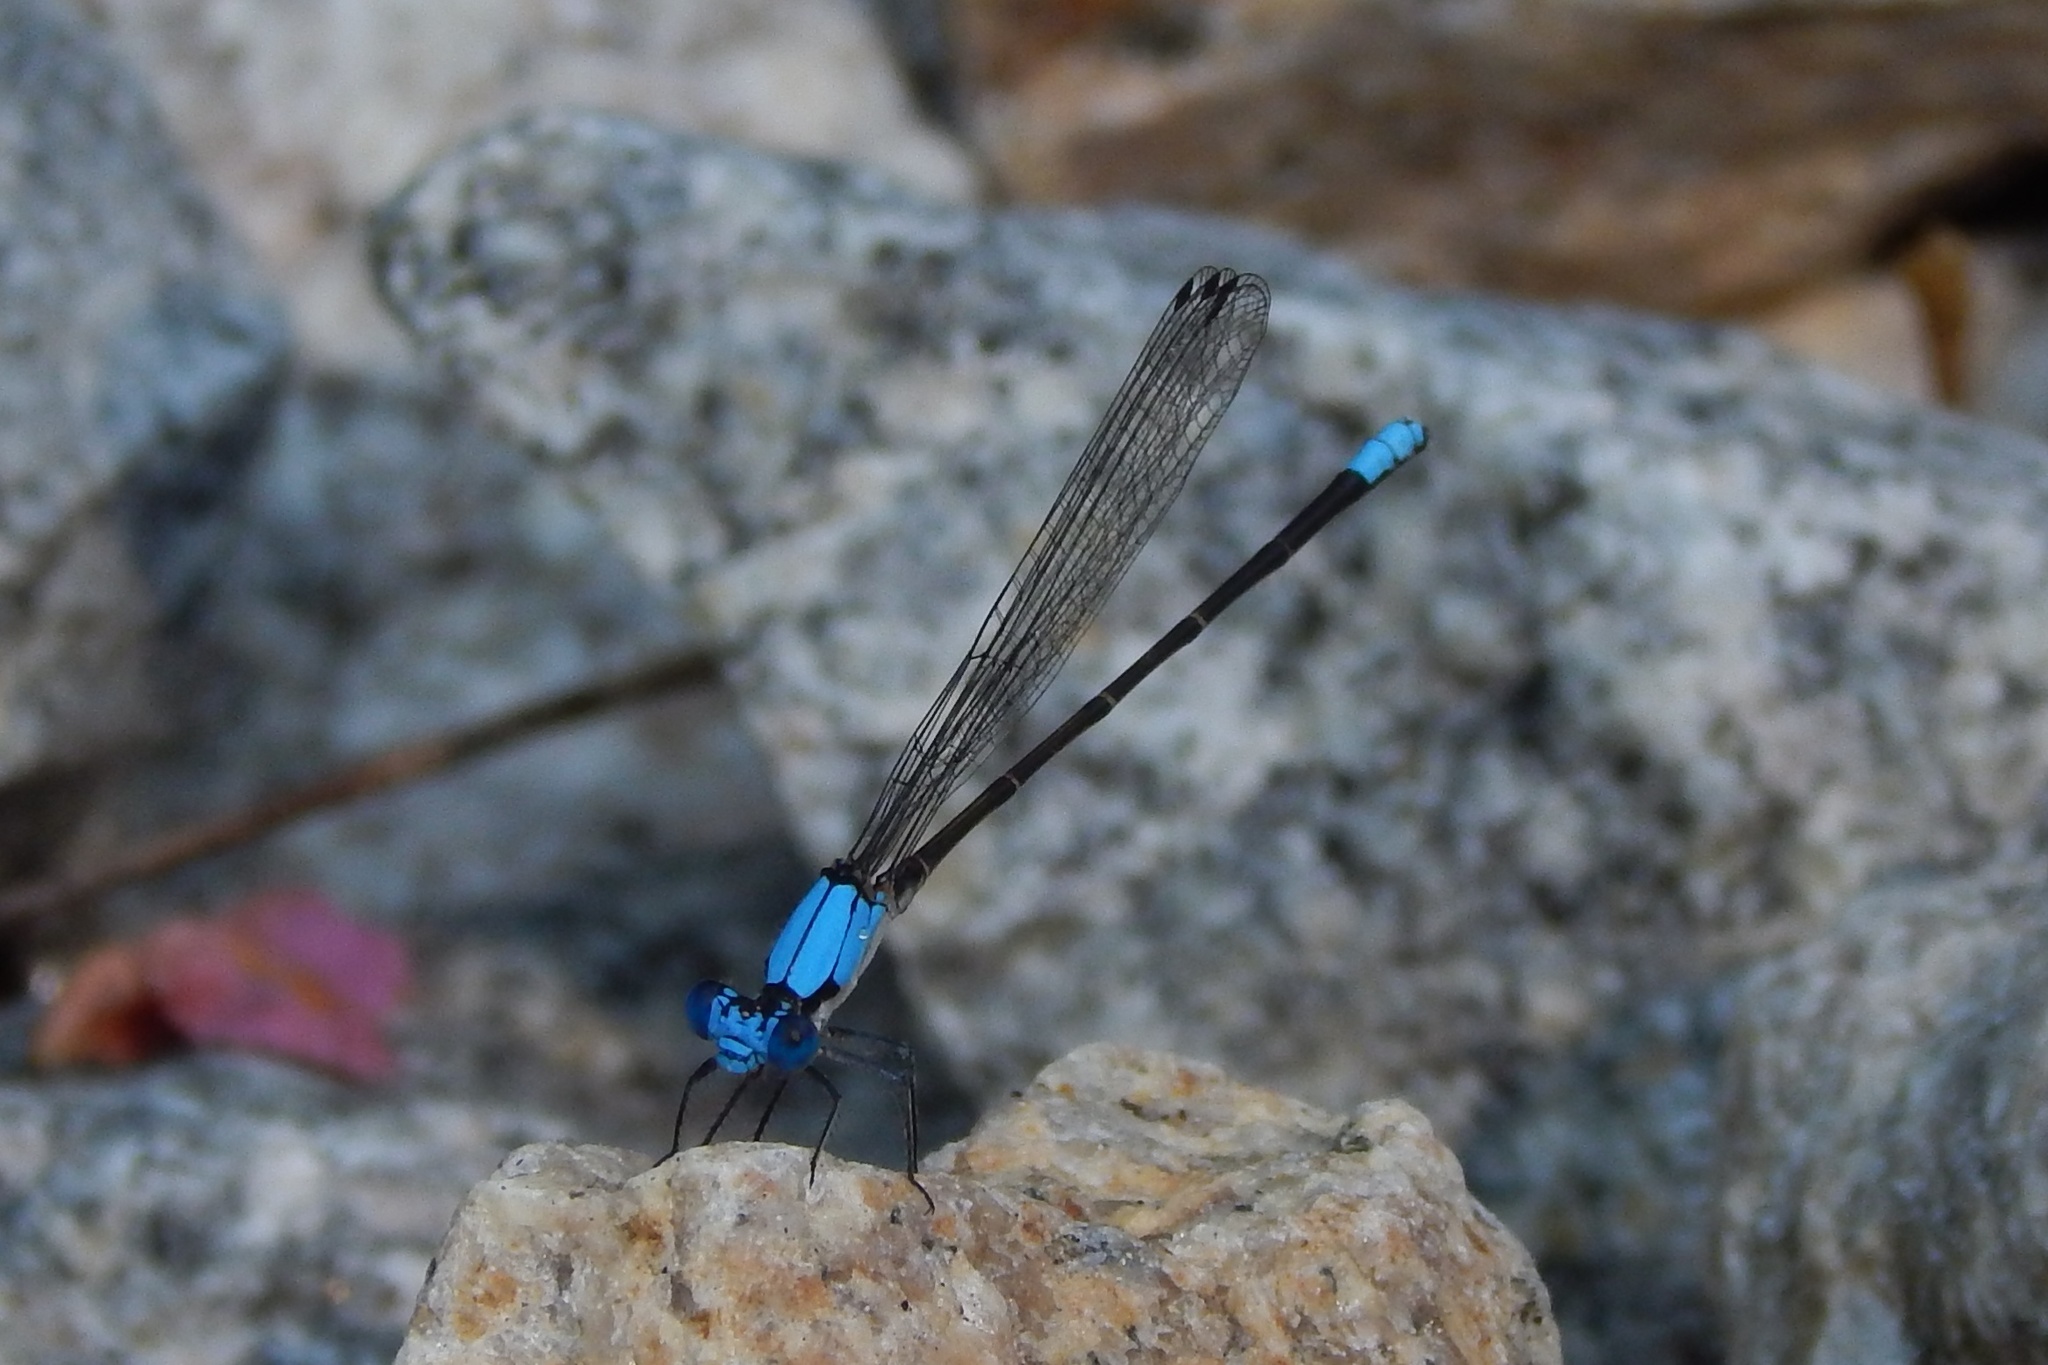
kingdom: Animalia
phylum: Arthropoda
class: Insecta
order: Odonata
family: Coenagrionidae
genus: Argia
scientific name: Argia apicalis
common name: Blue-fronted dancer
